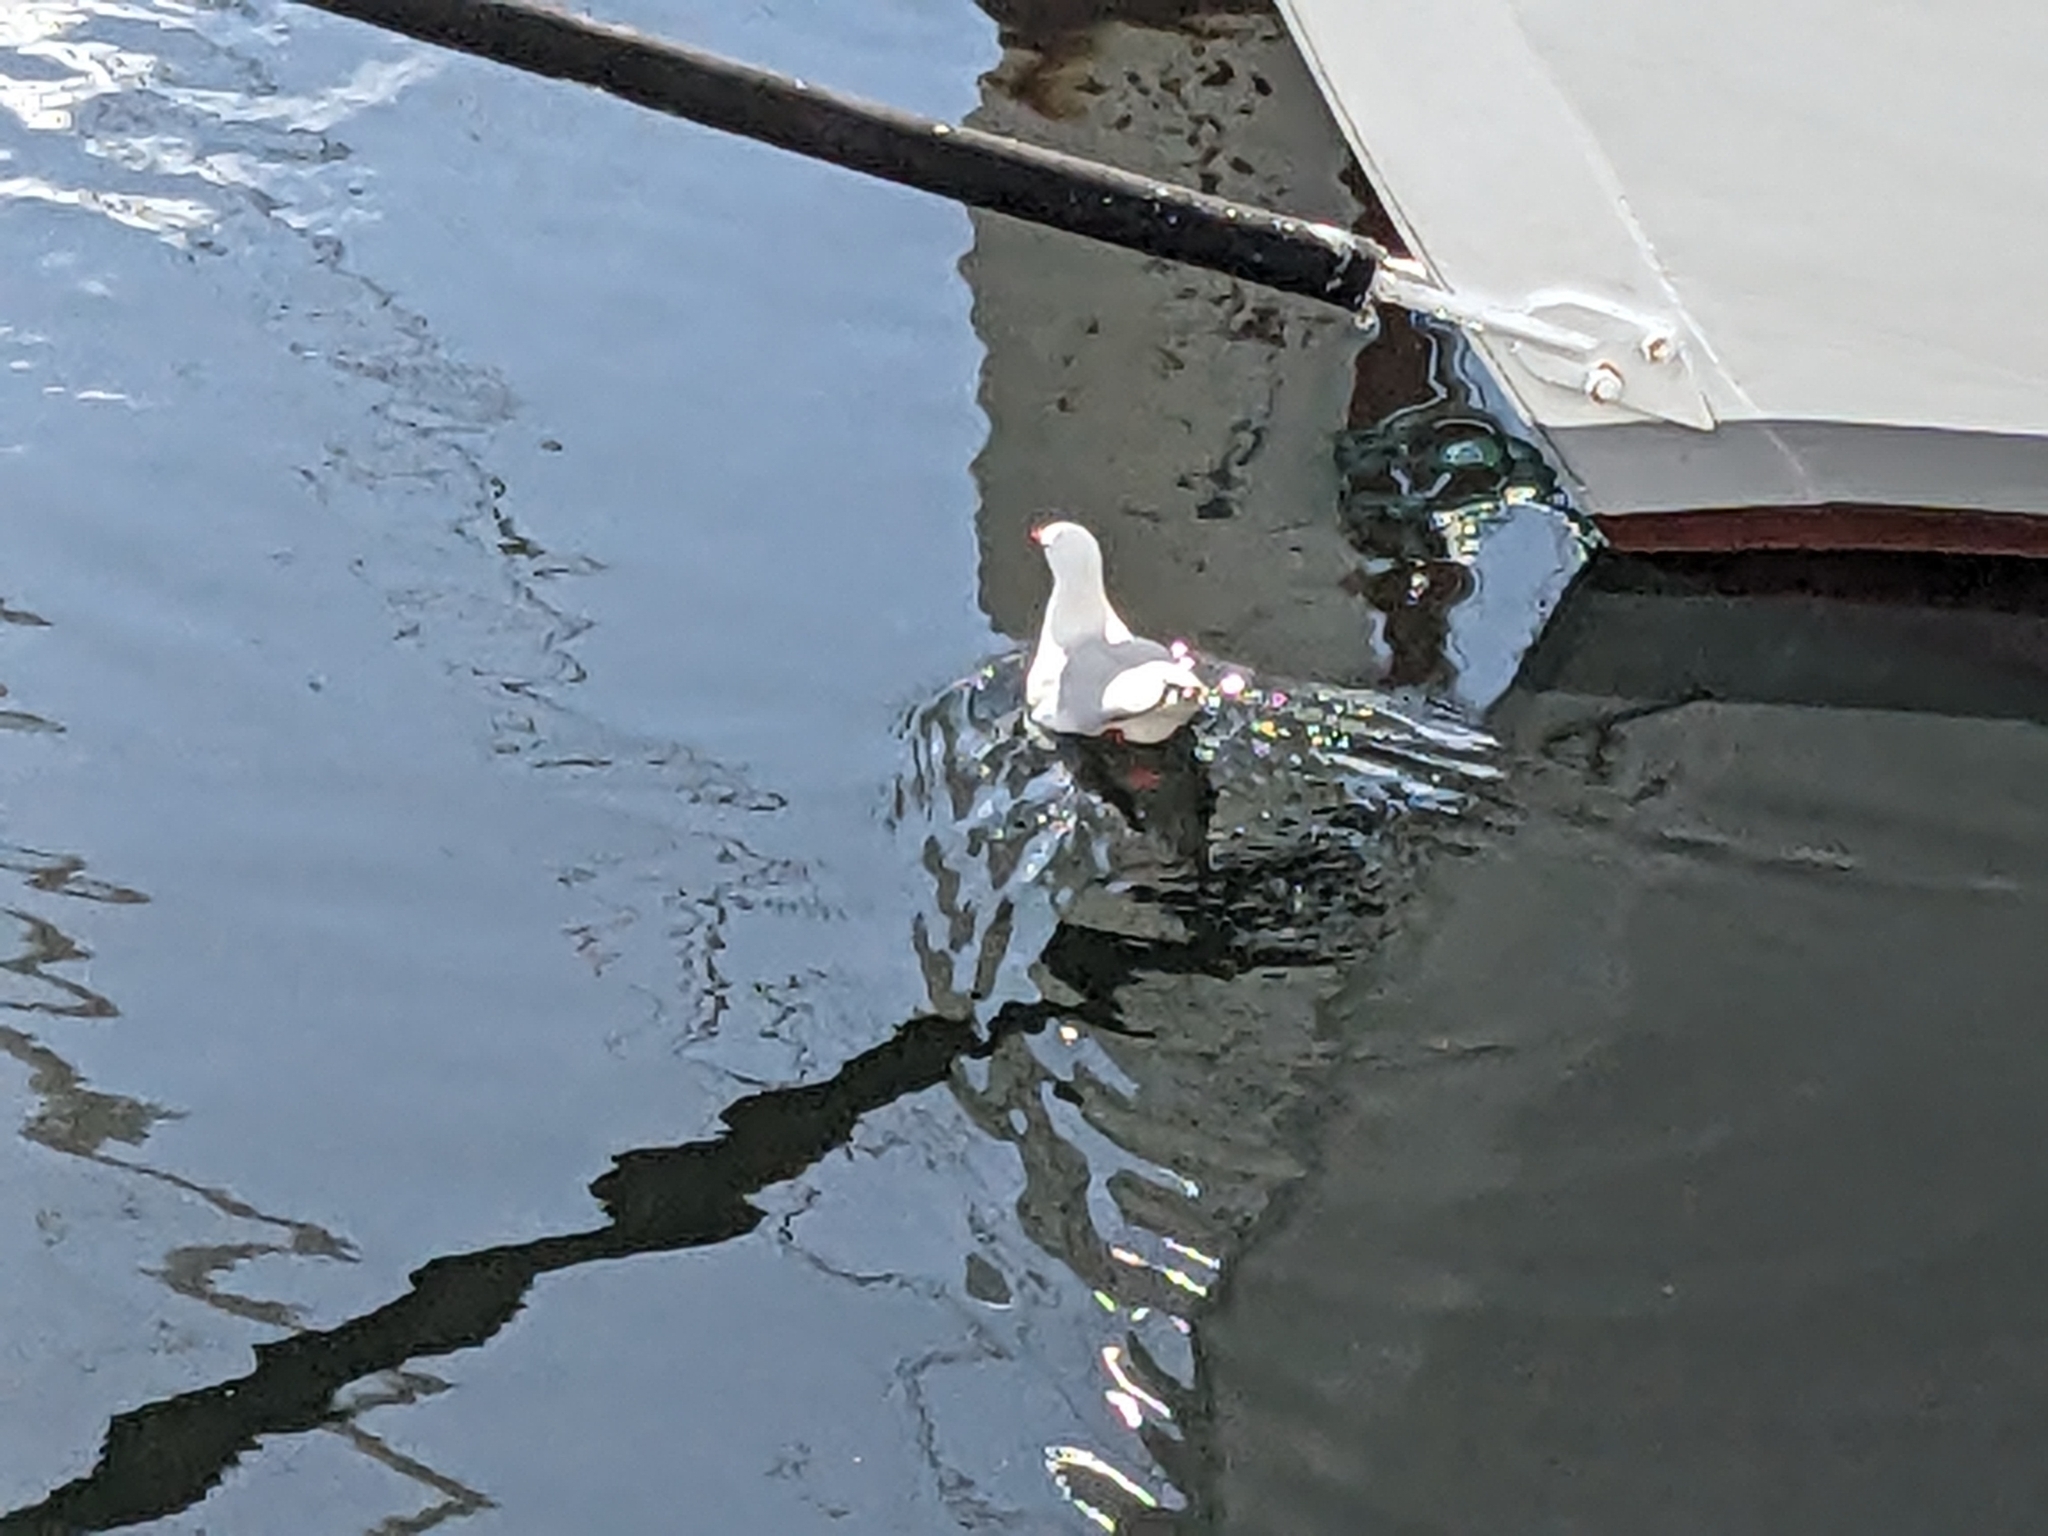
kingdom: Animalia
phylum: Chordata
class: Aves
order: Charadriiformes
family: Laridae
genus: Chroicocephalus
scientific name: Chroicocephalus novaehollandiae
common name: Silver gull
